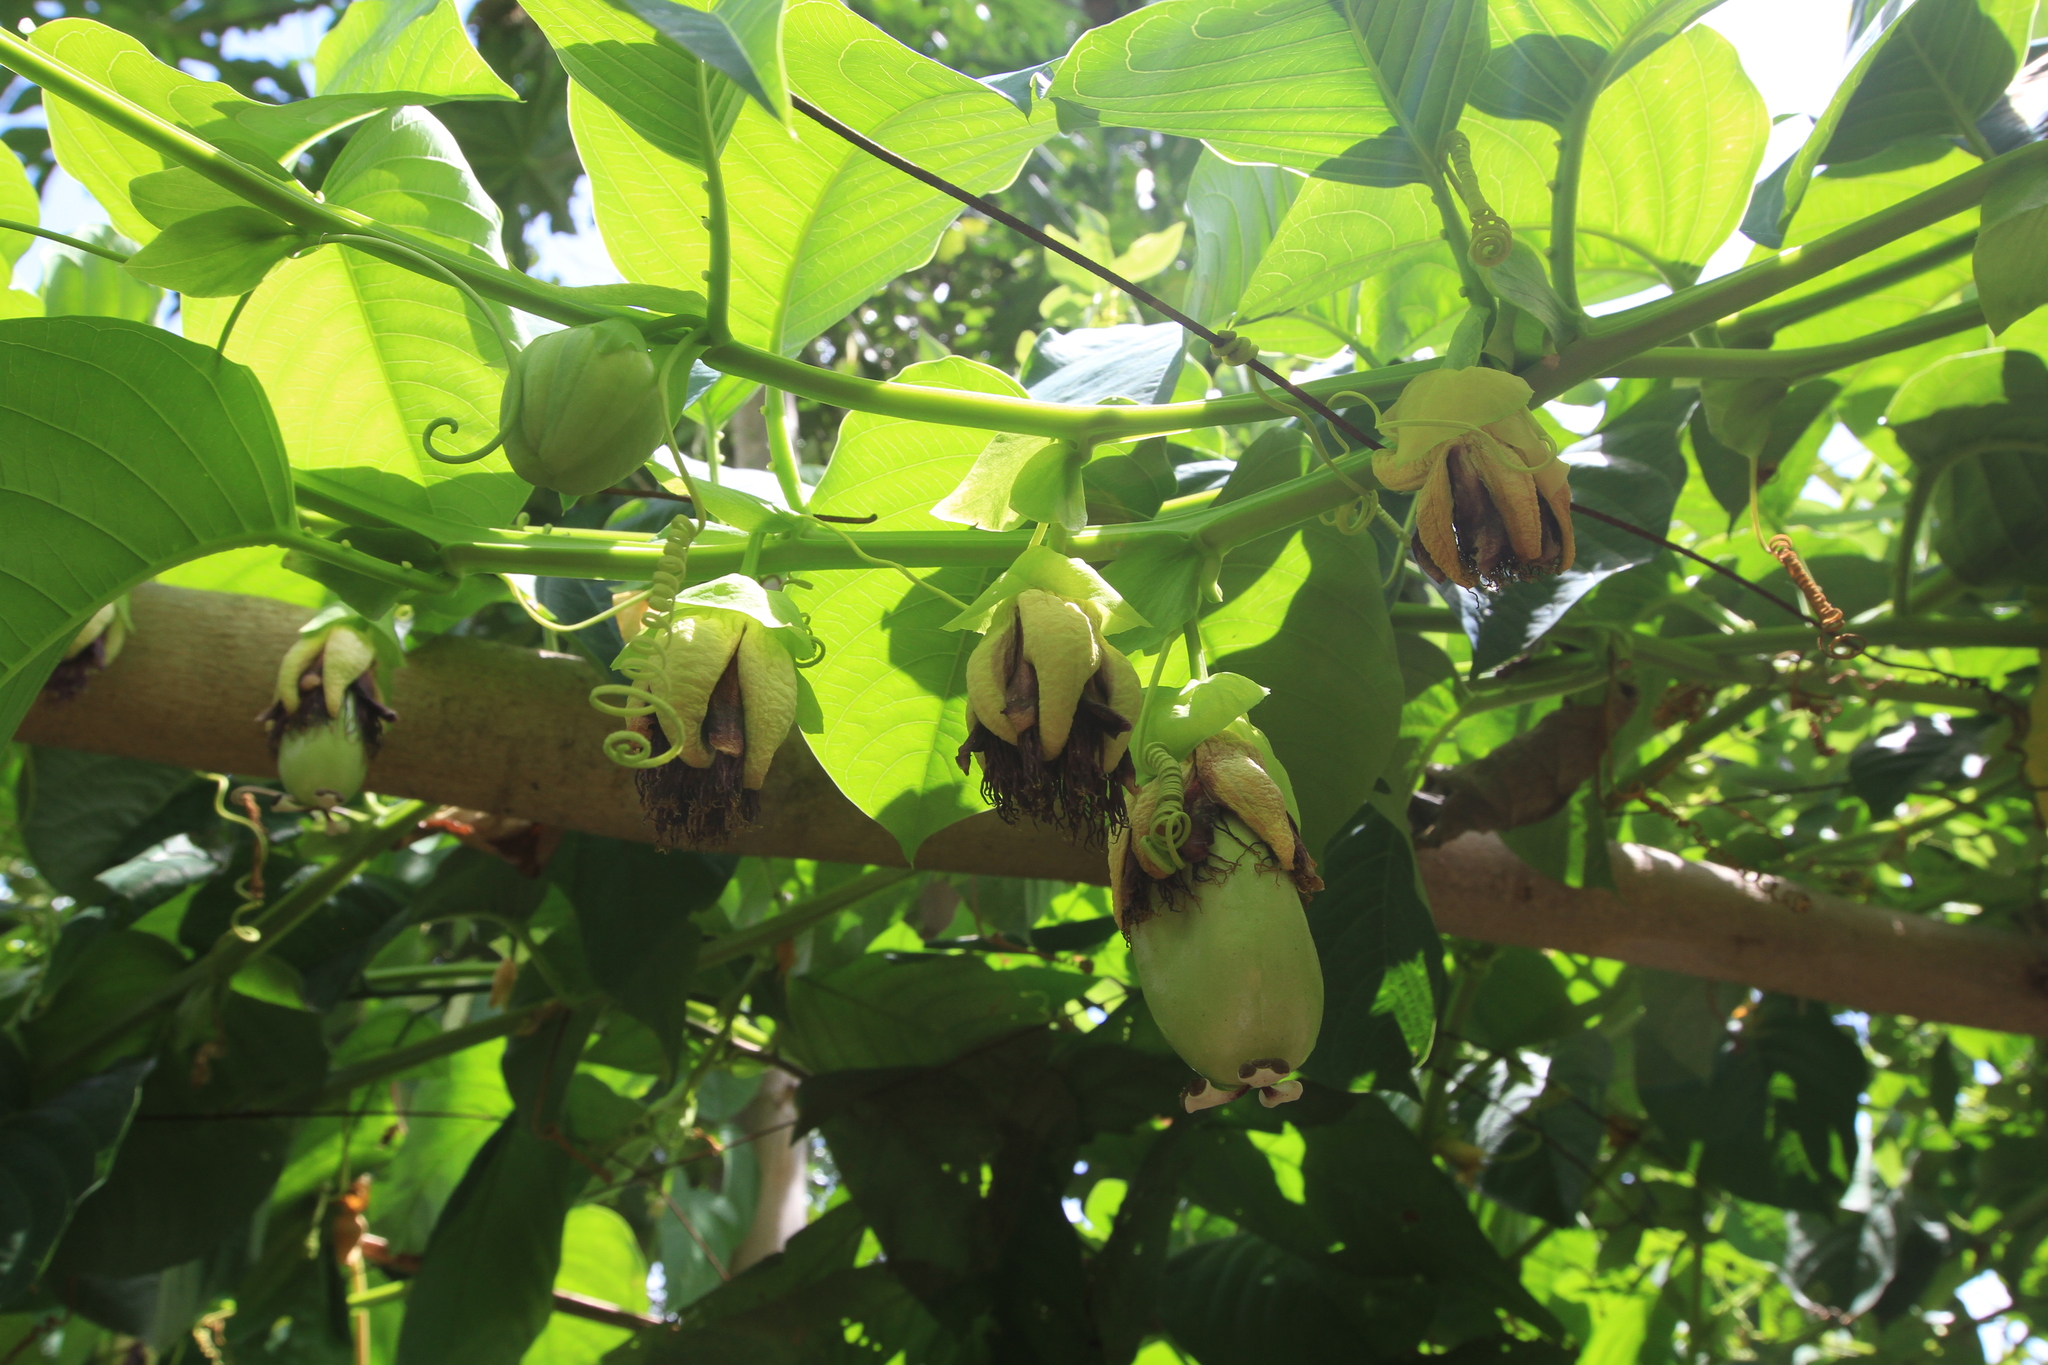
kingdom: Plantae
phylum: Tracheophyta
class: Magnoliopsida
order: Malpighiales
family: Passifloraceae
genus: Passiflora
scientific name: Passiflora quadrangularis
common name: Giant granadilla
